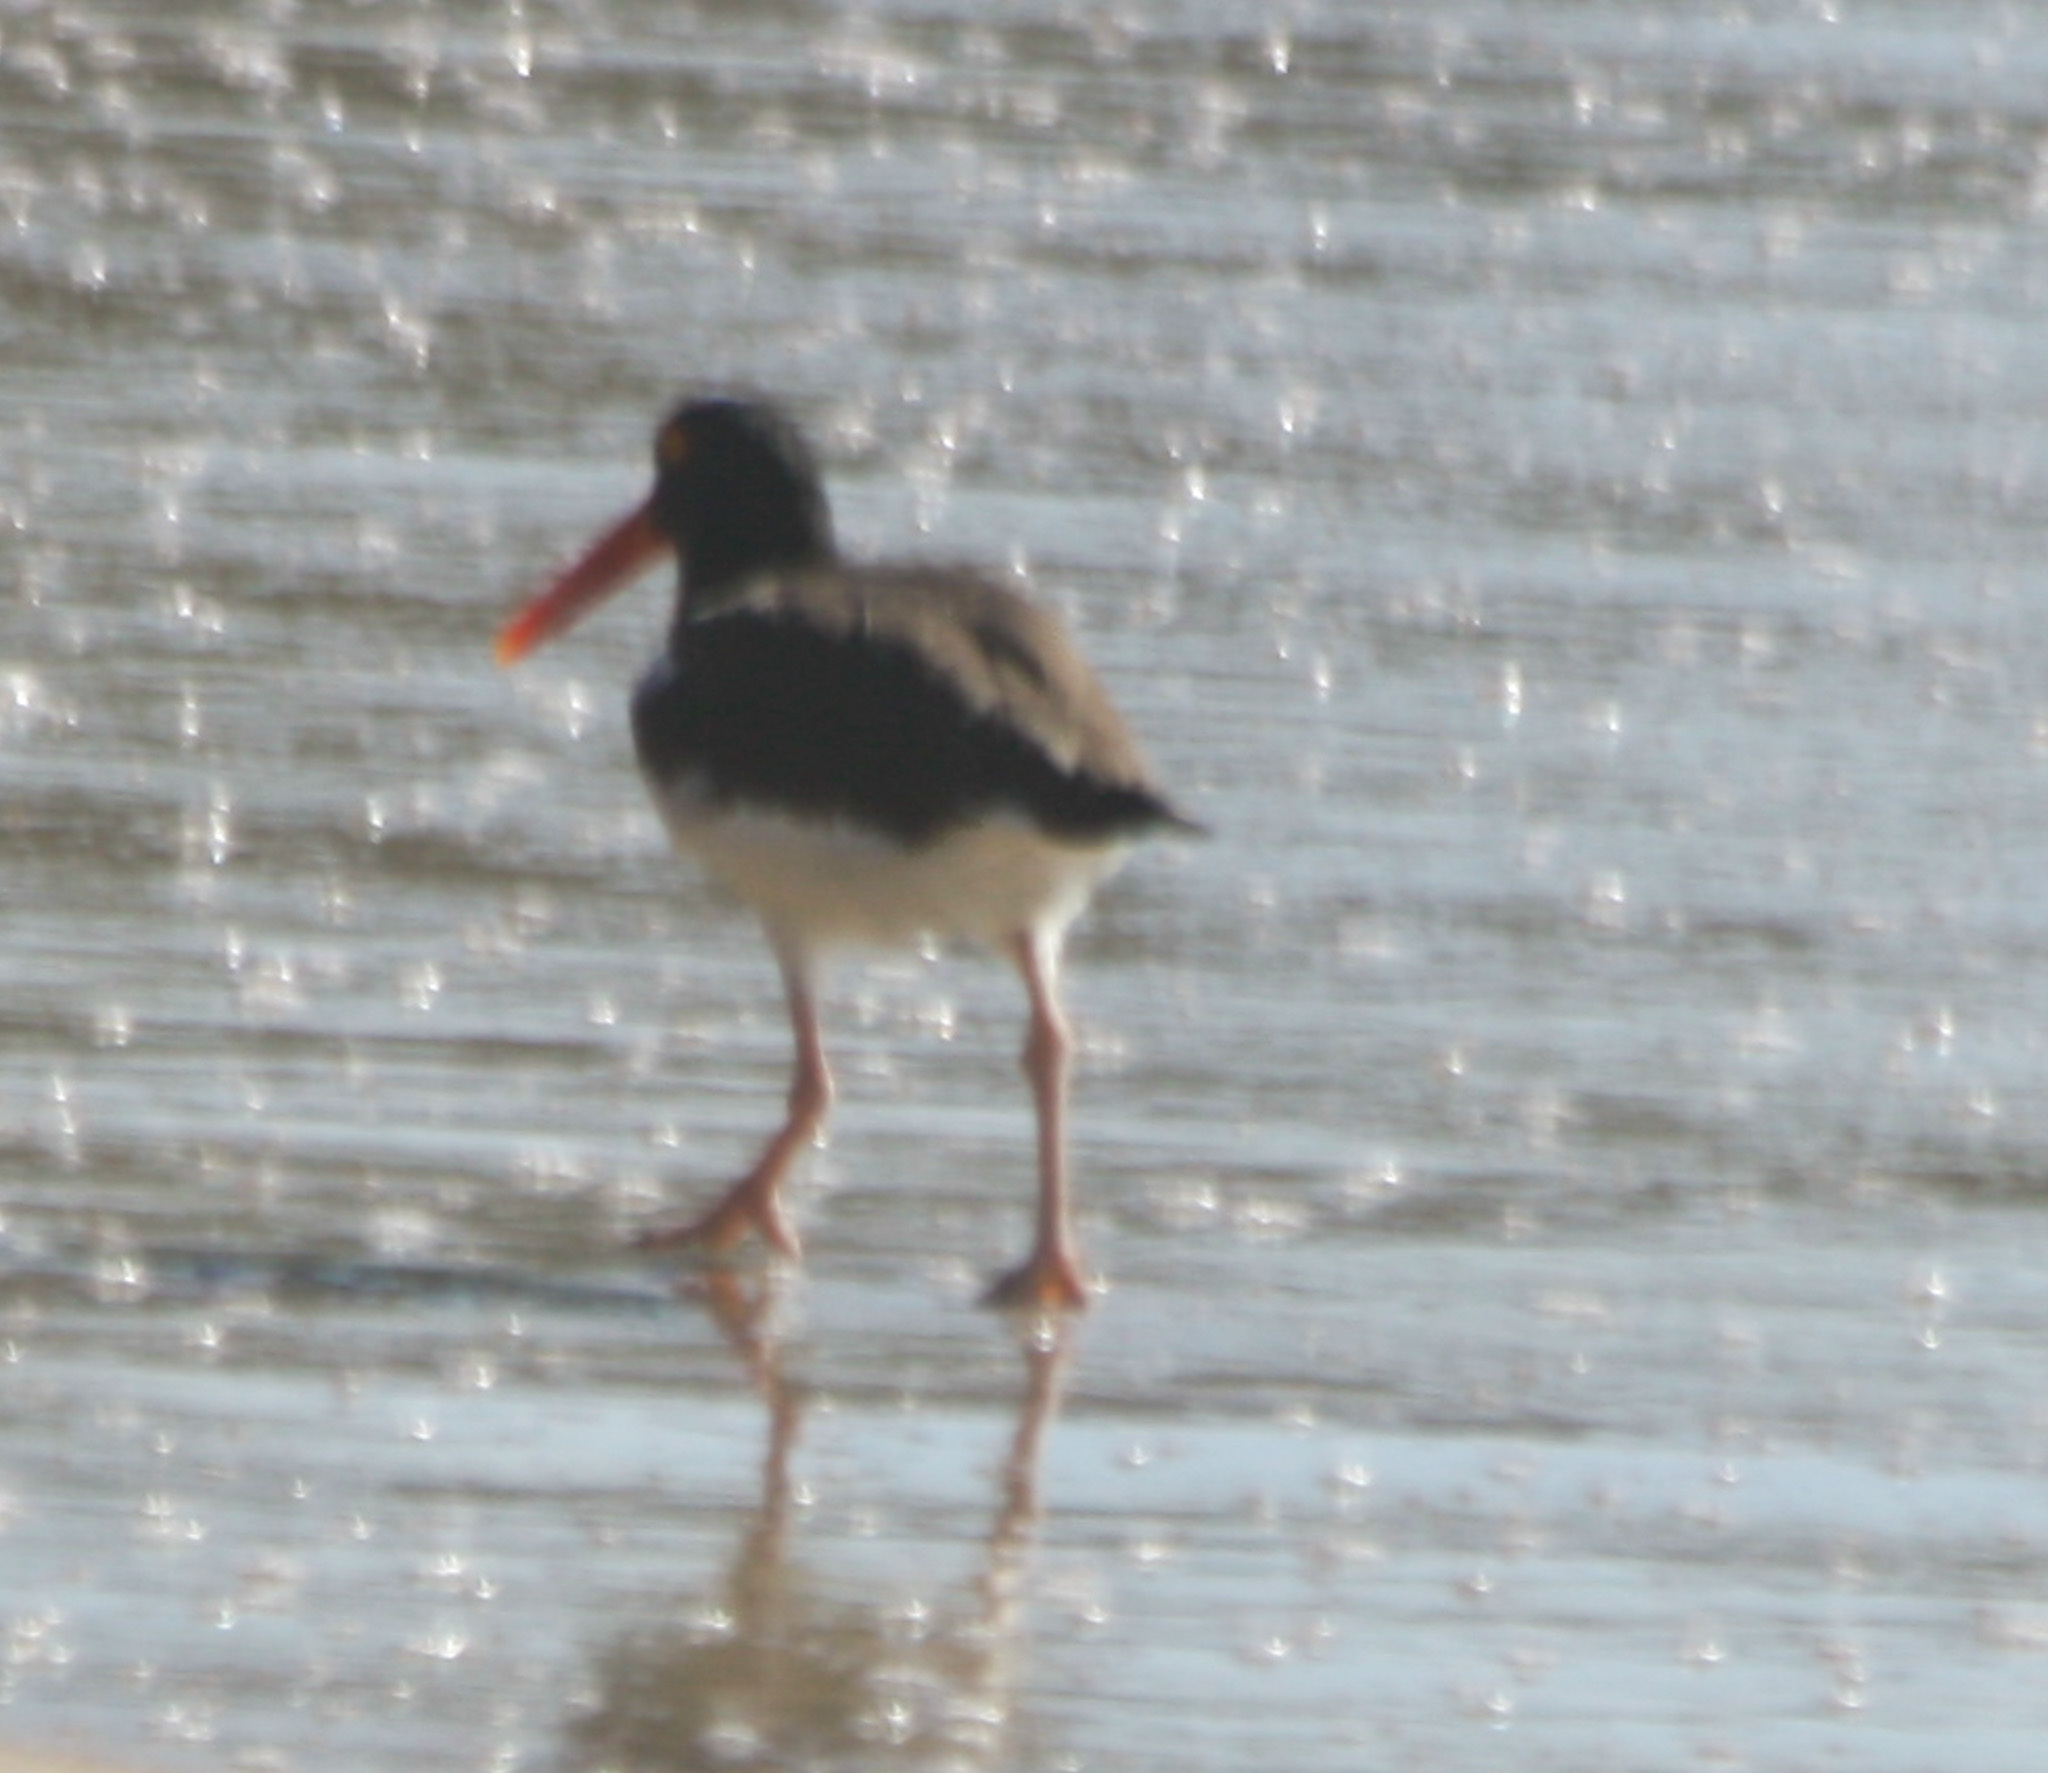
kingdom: Animalia
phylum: Chordata
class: Aves
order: Charadriiformes
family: Haematopodidae
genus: Haematopus
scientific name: Haematopus palliatus
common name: American oystercatcher
